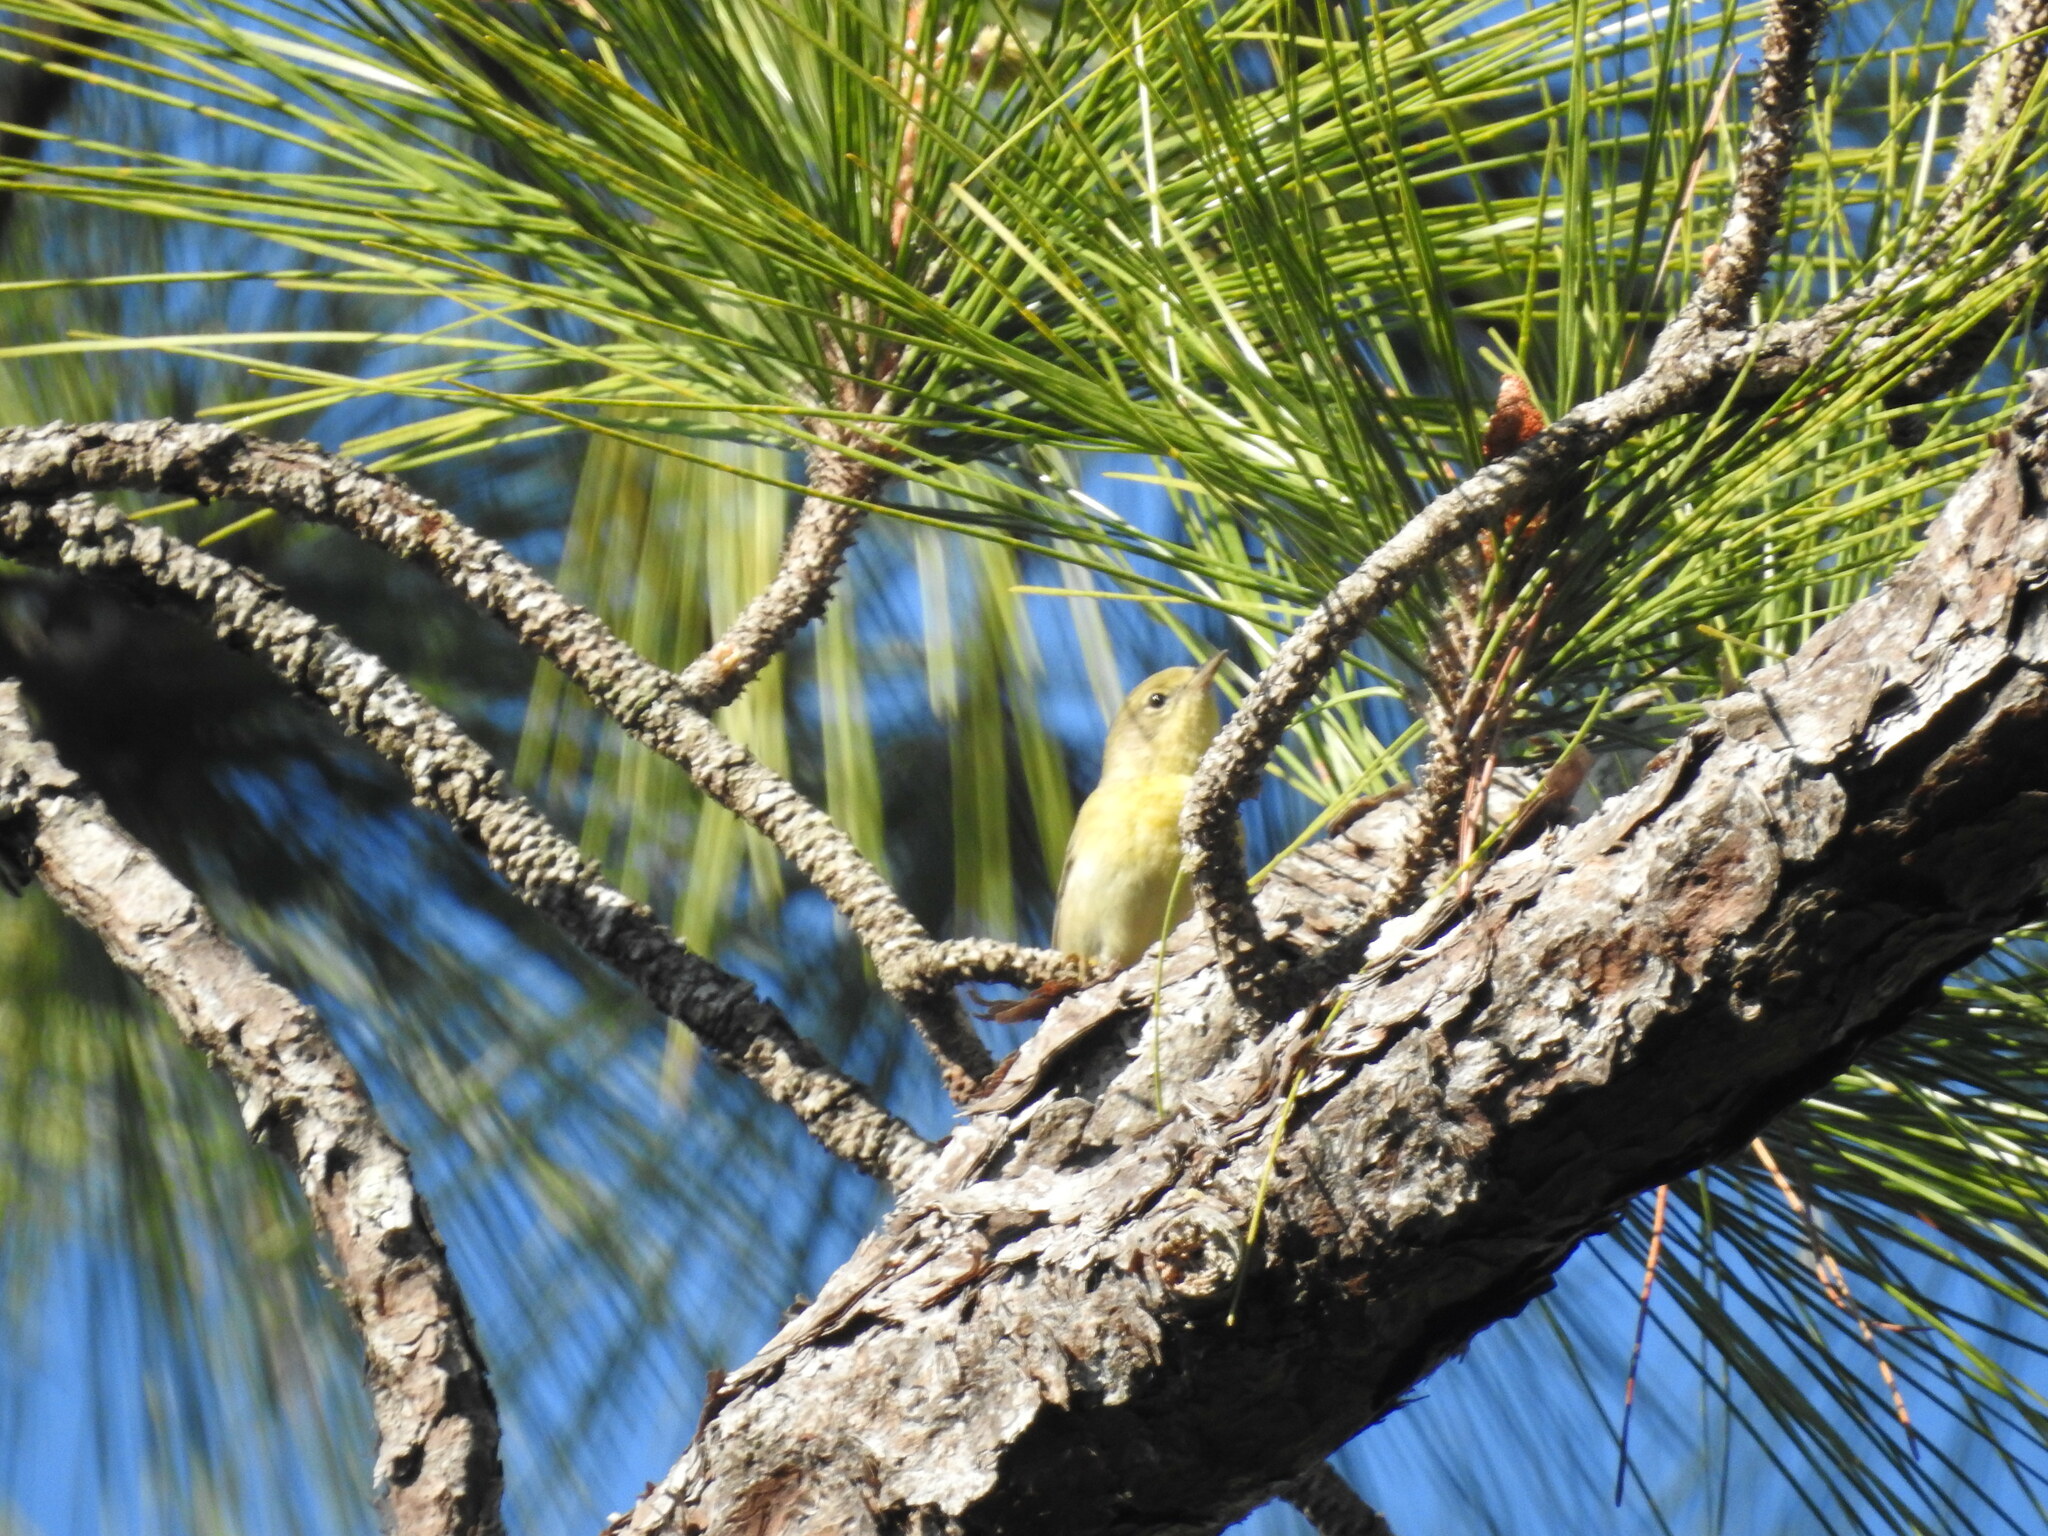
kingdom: Animalia
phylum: Chordata
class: Aves
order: Passeriformes
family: Parulidae
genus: Setophaga
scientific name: Setophaga pinus
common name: Pine warbler
